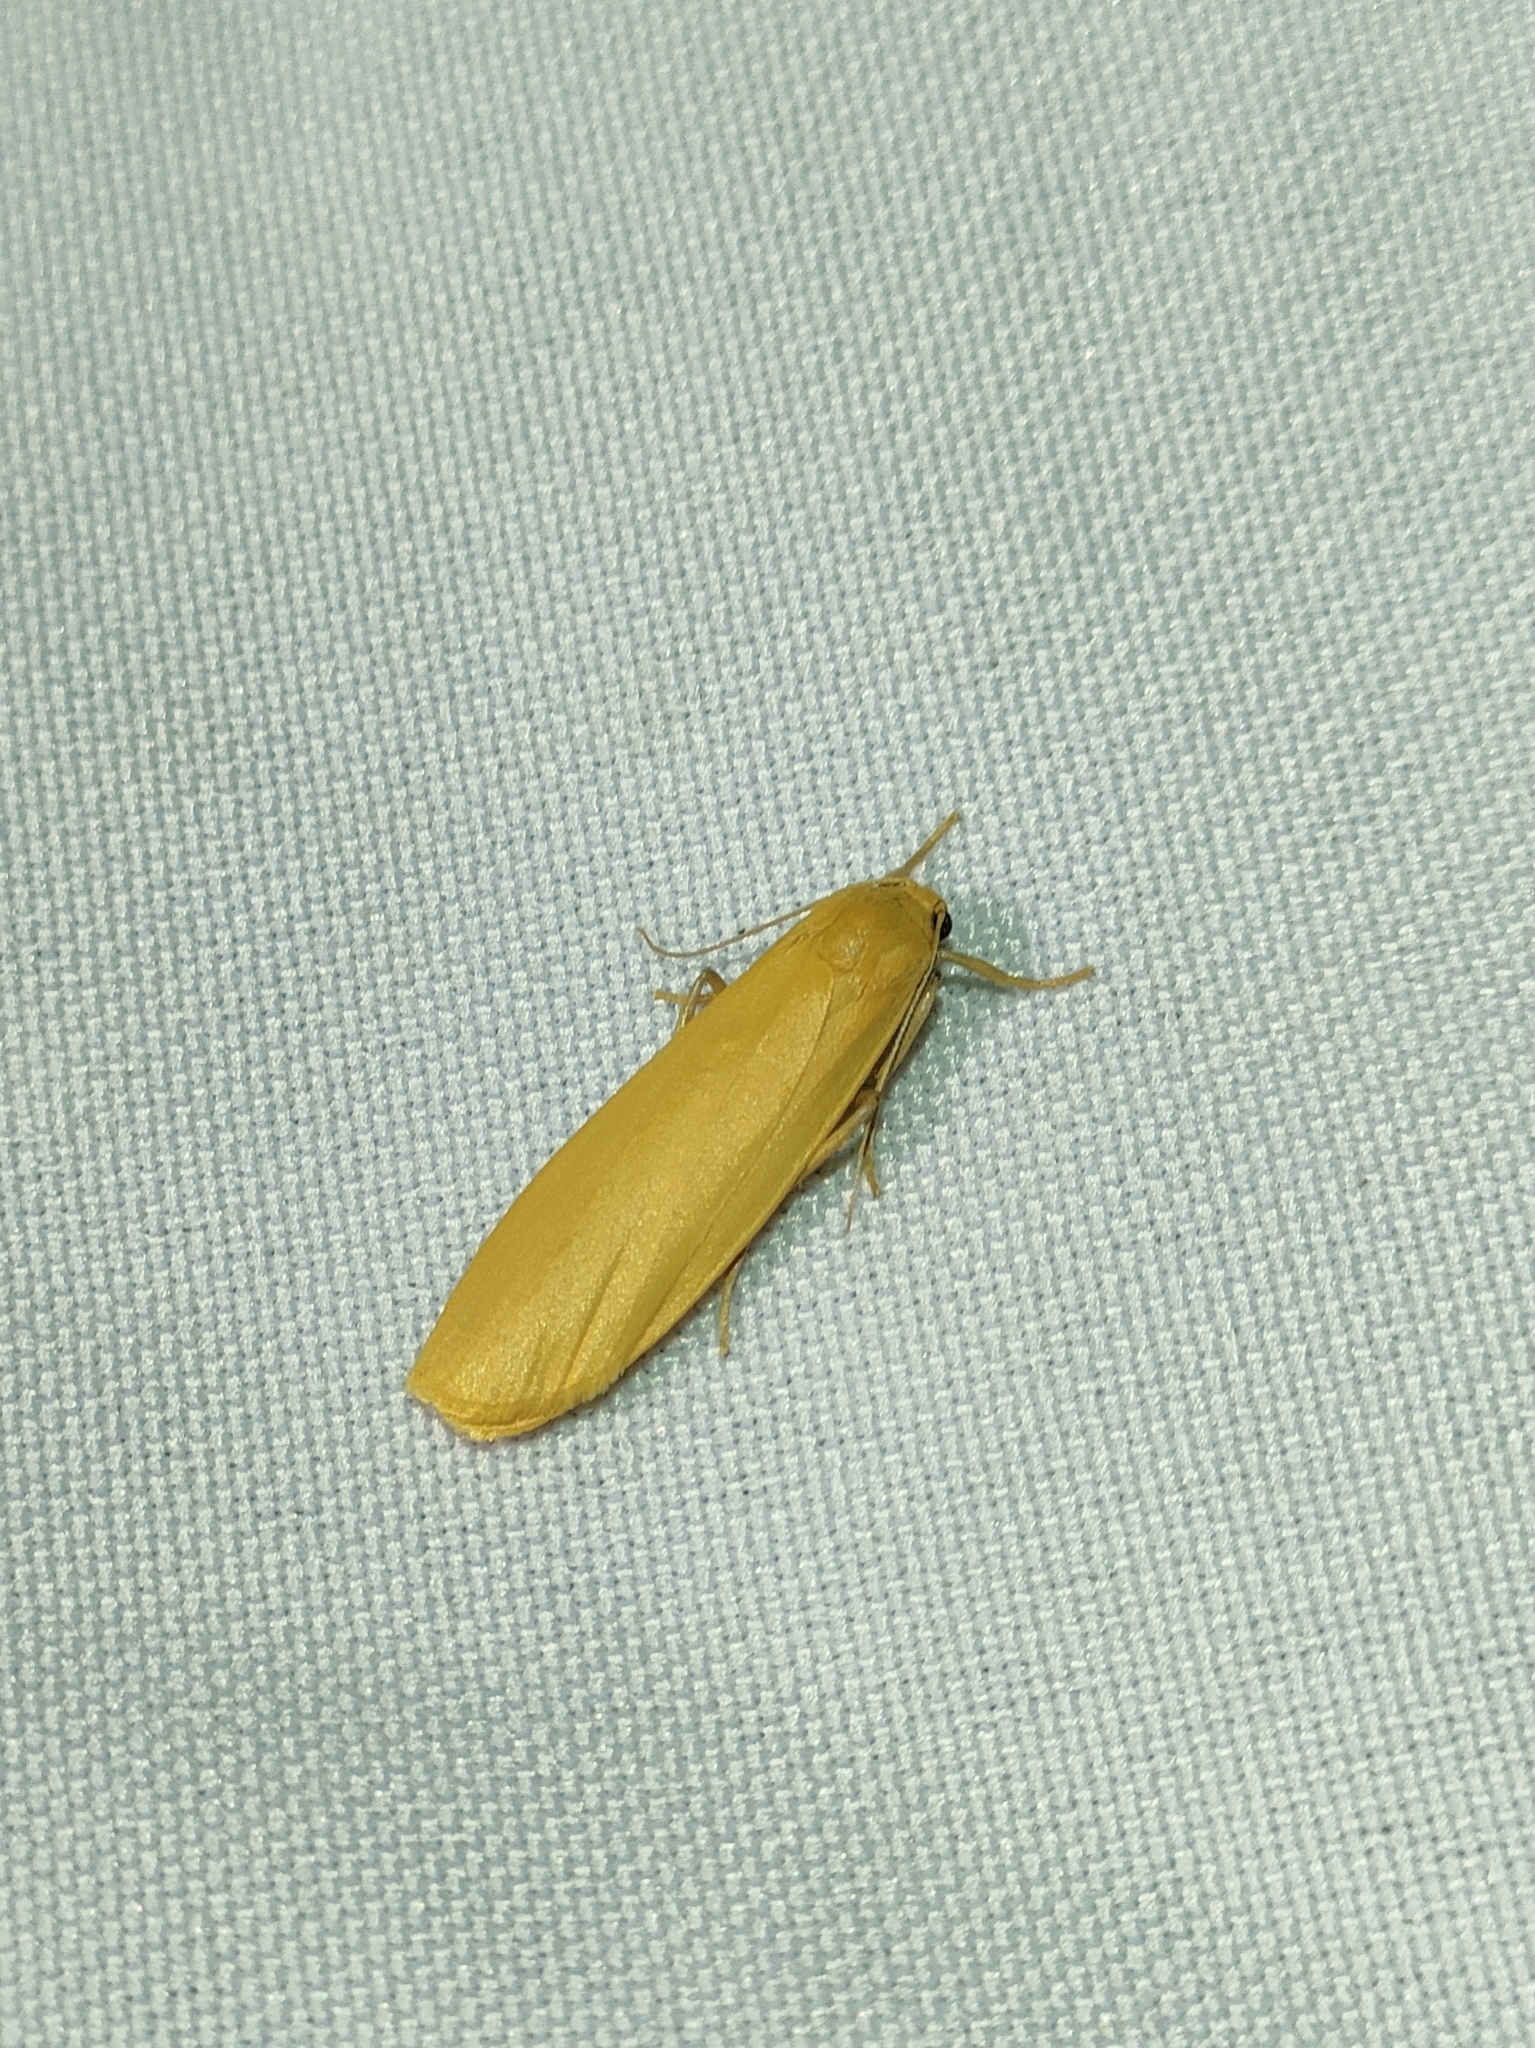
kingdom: Animalia
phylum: Arthropoda
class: Insecta
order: Lepidoptera
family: Erebidae
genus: Wittia
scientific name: Wittia sororcula
